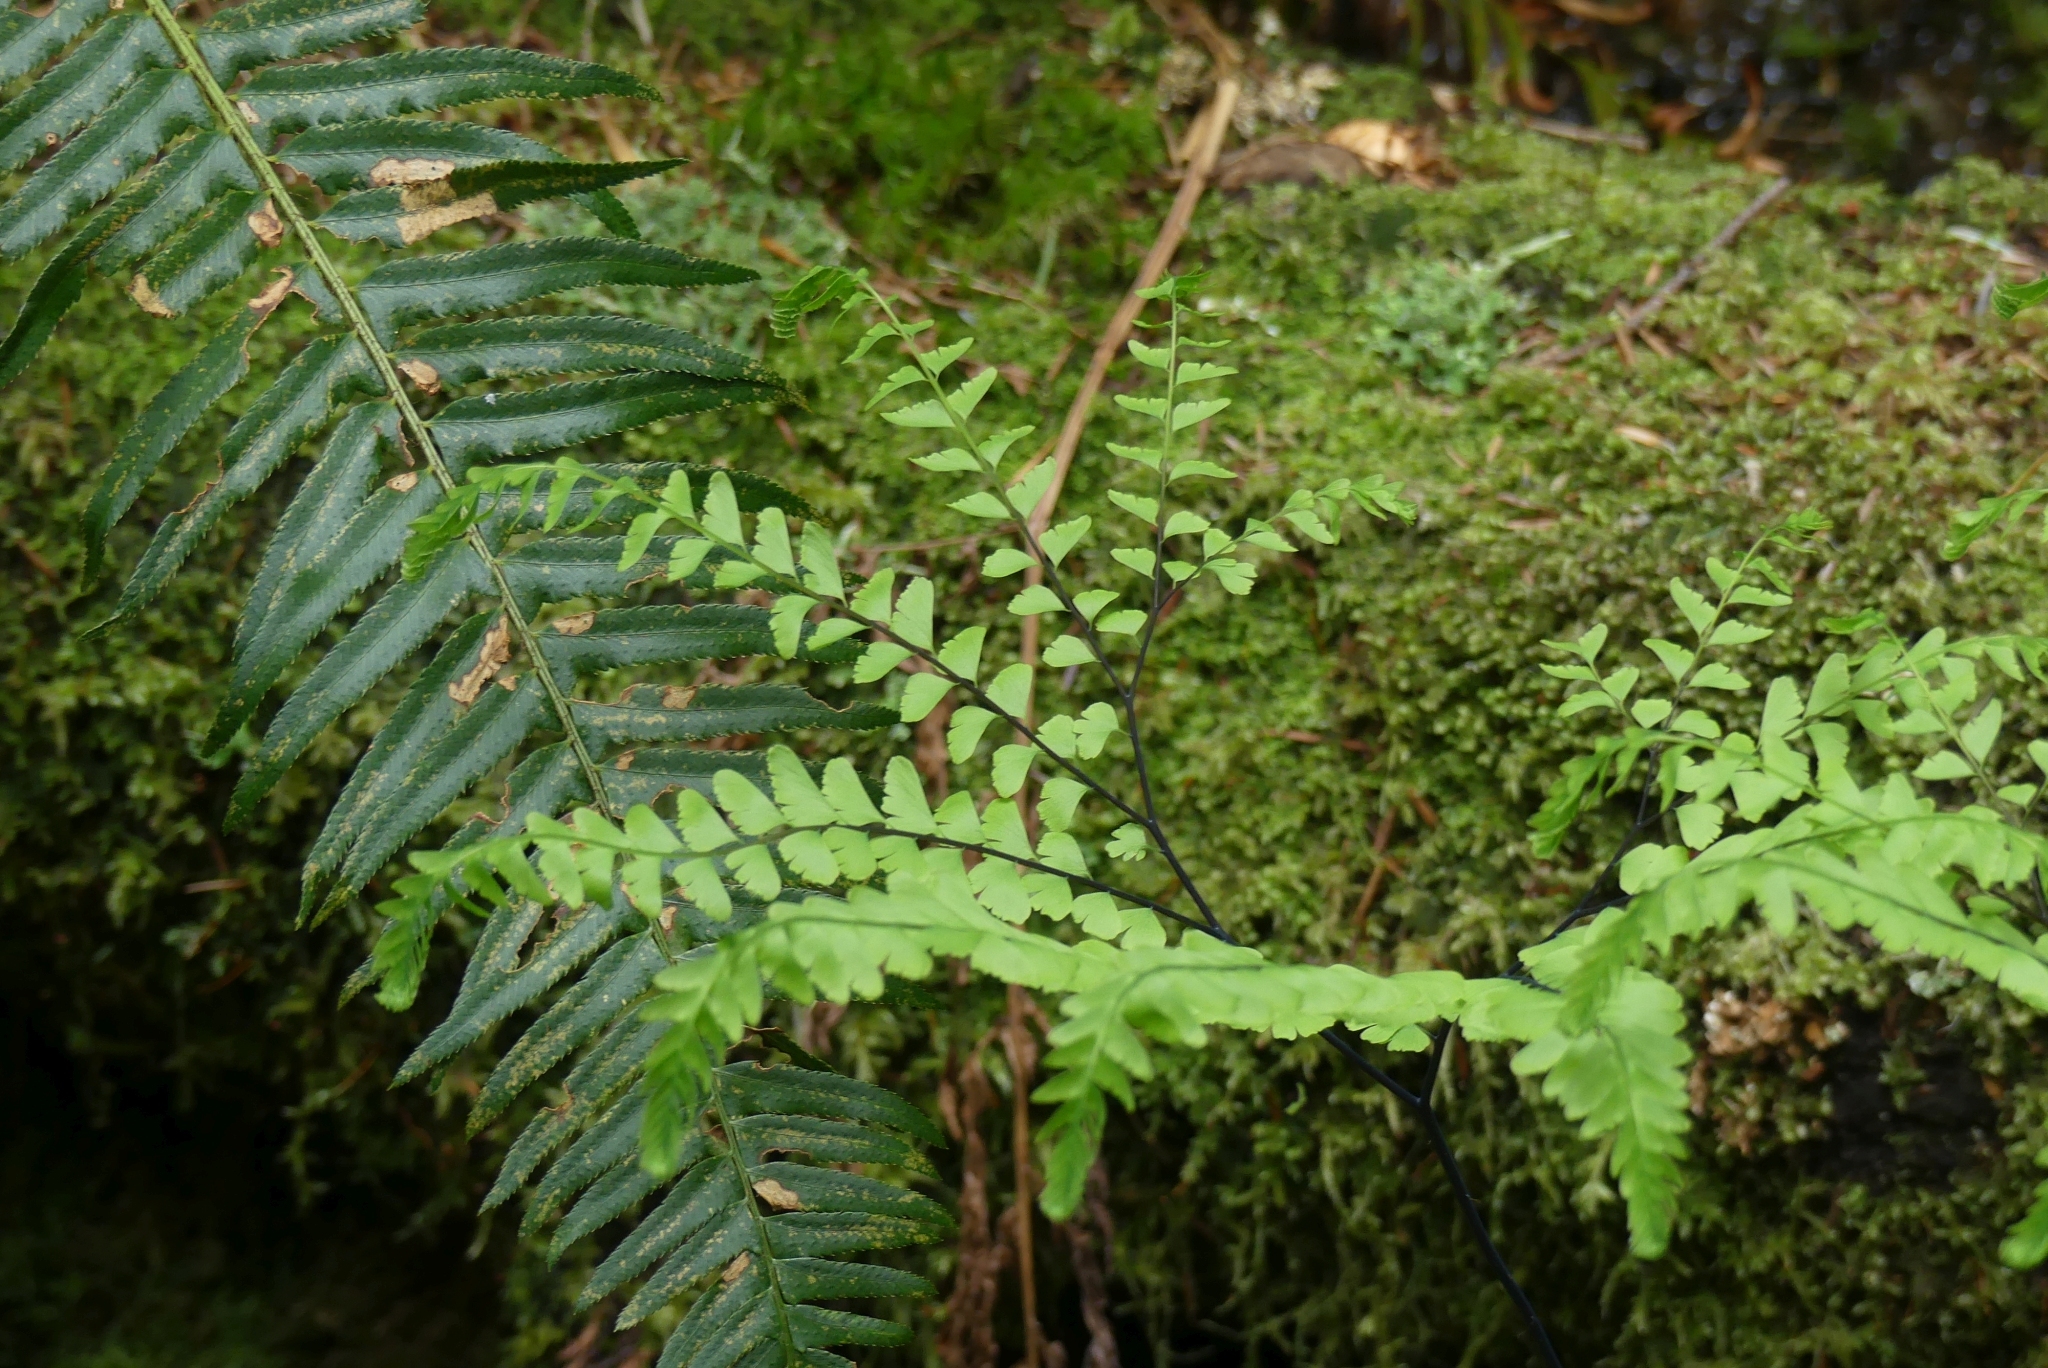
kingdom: Plantae
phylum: Tracheophyta
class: Polypodiopsida
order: Polypodiales
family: Pteridaceae
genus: Adiantum
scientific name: Adiantum aleuticum
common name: Aleutian maidenhair fern
